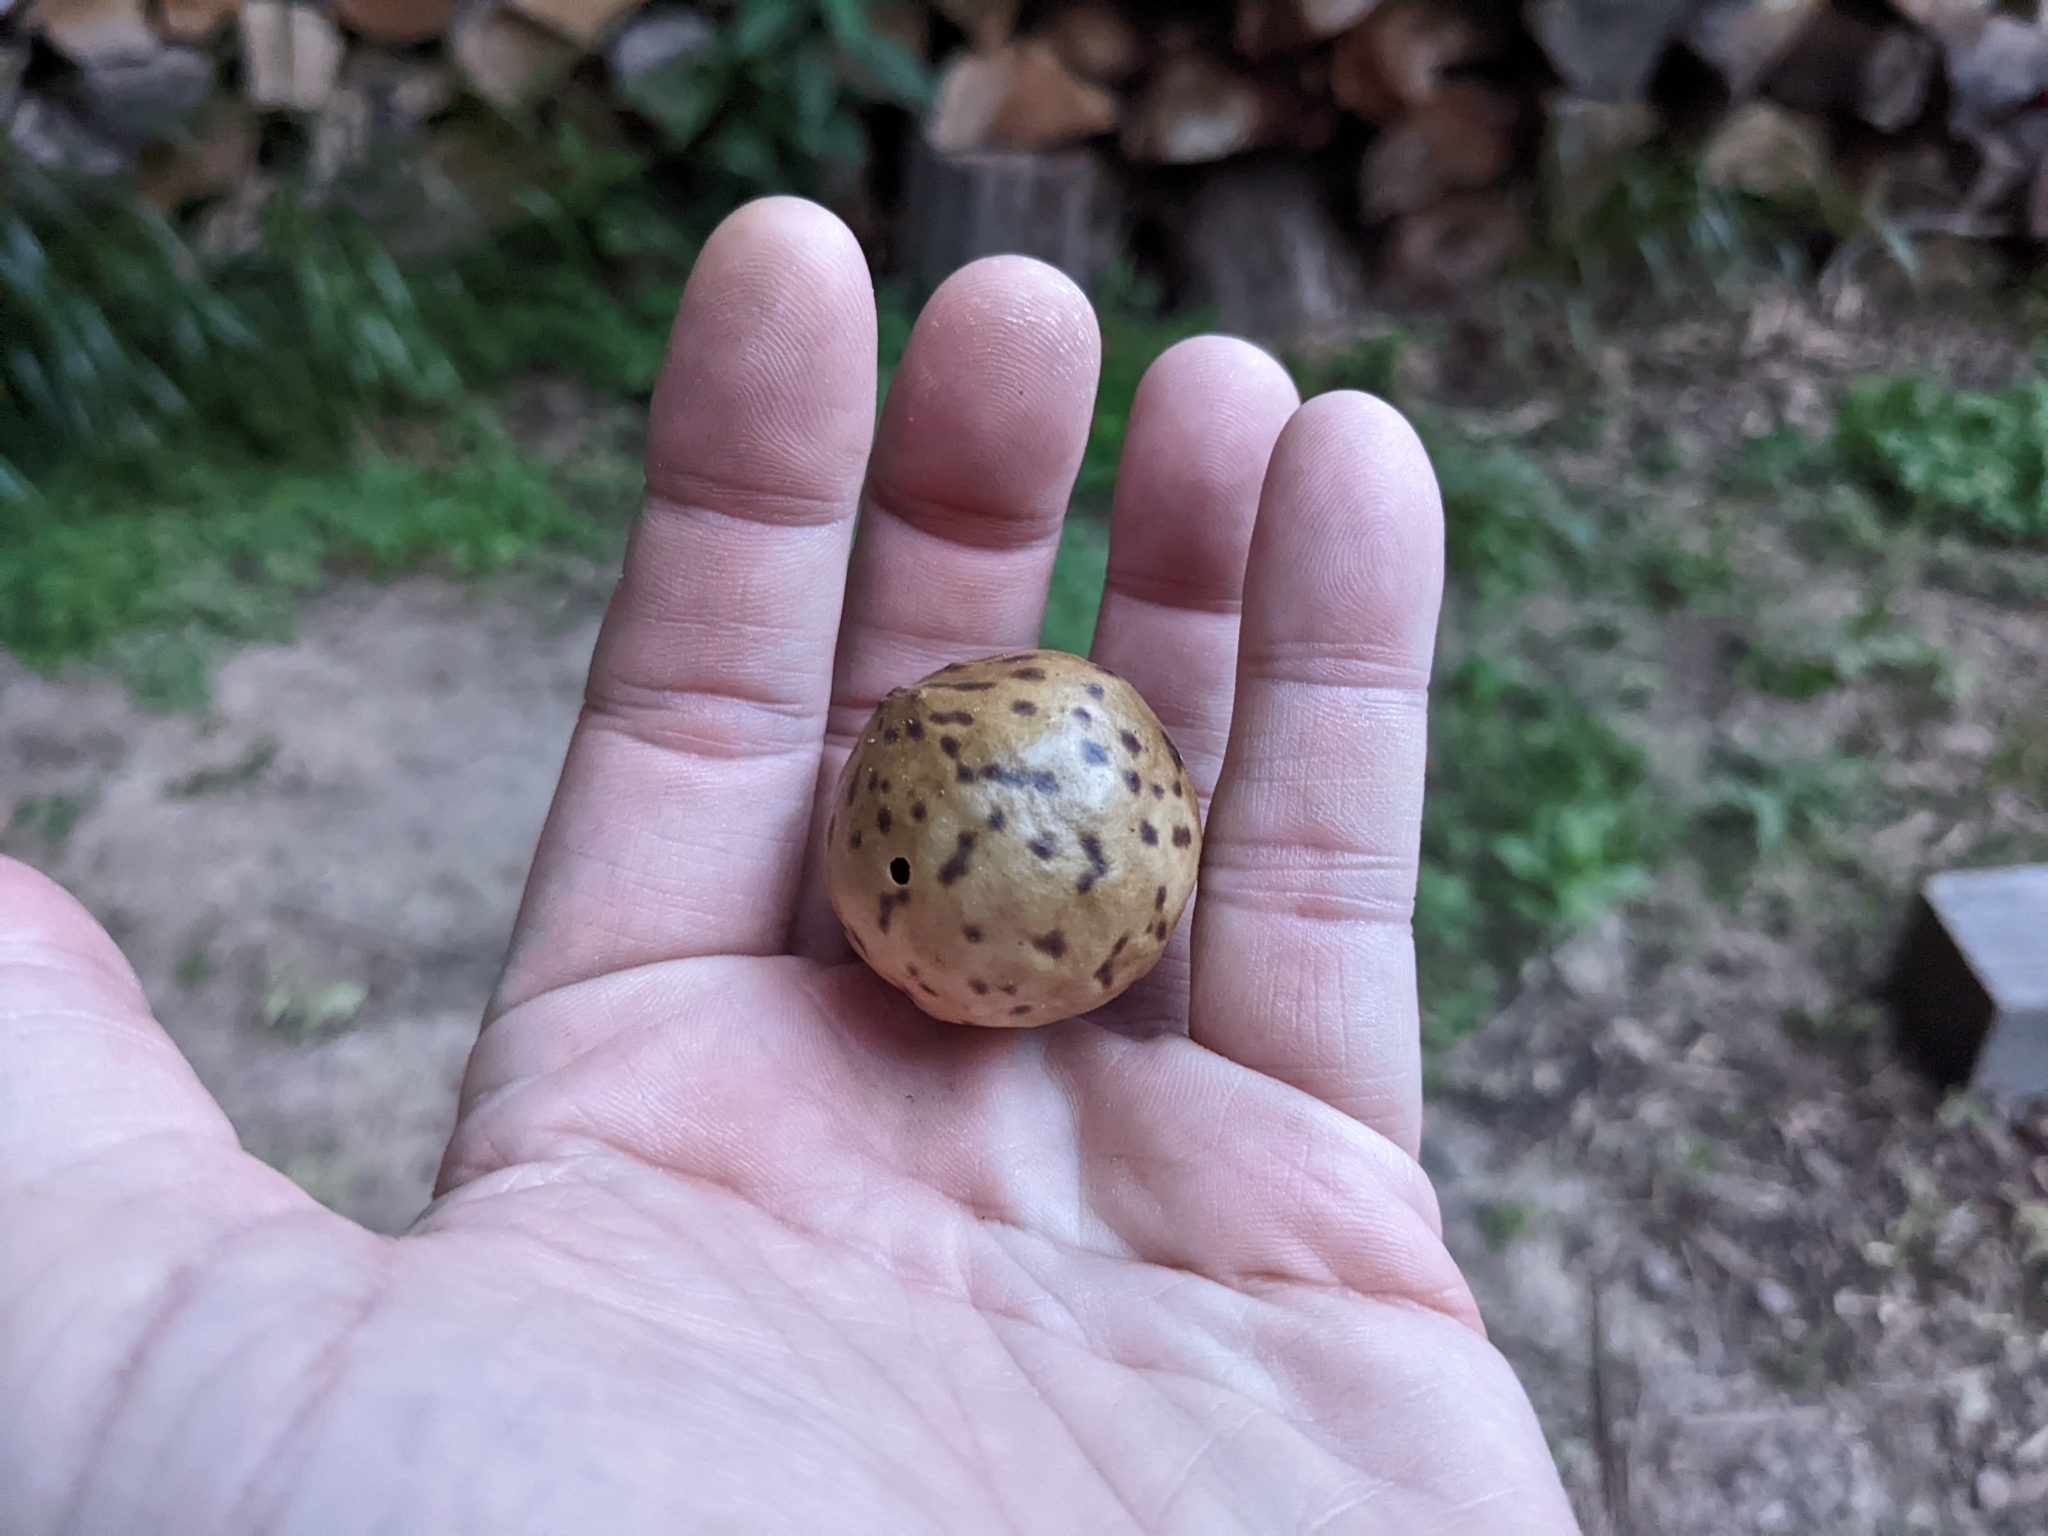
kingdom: Animalia
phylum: Arthropoda
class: Insecta
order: Hymenoptera
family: Cynipidae
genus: Amphibolips
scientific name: Amphibolips
